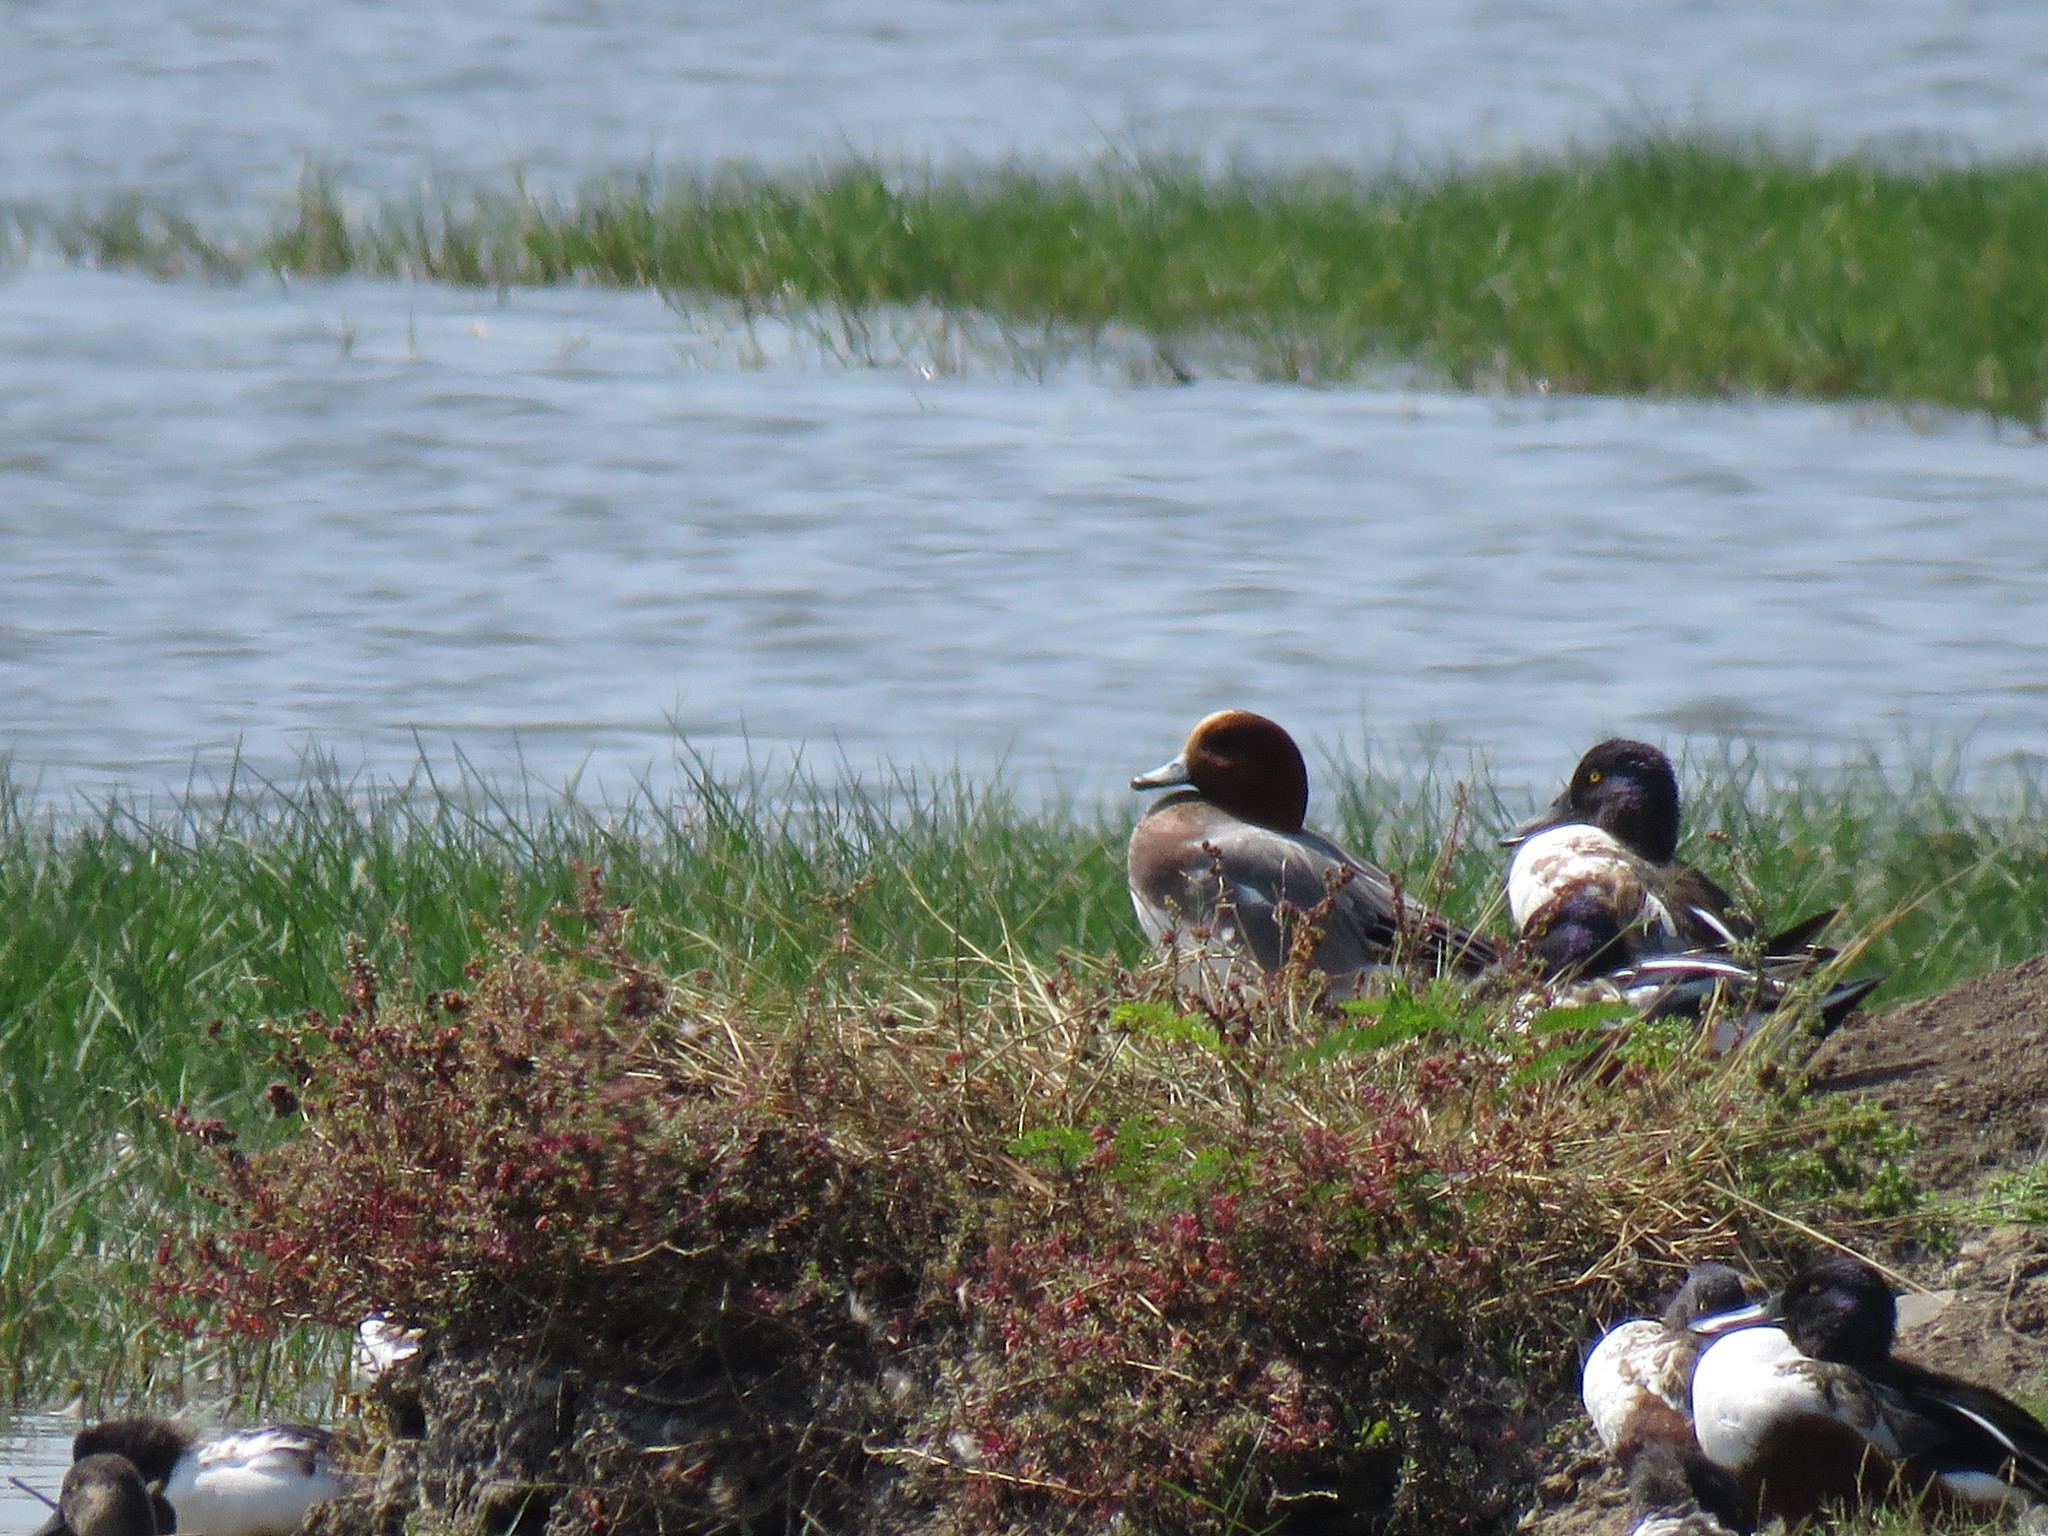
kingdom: Animalia
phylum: Chordata
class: Aves
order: Anseriformes
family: Anatidae
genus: Mareca
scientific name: Mareca penelope
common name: Eurasian wigeon
